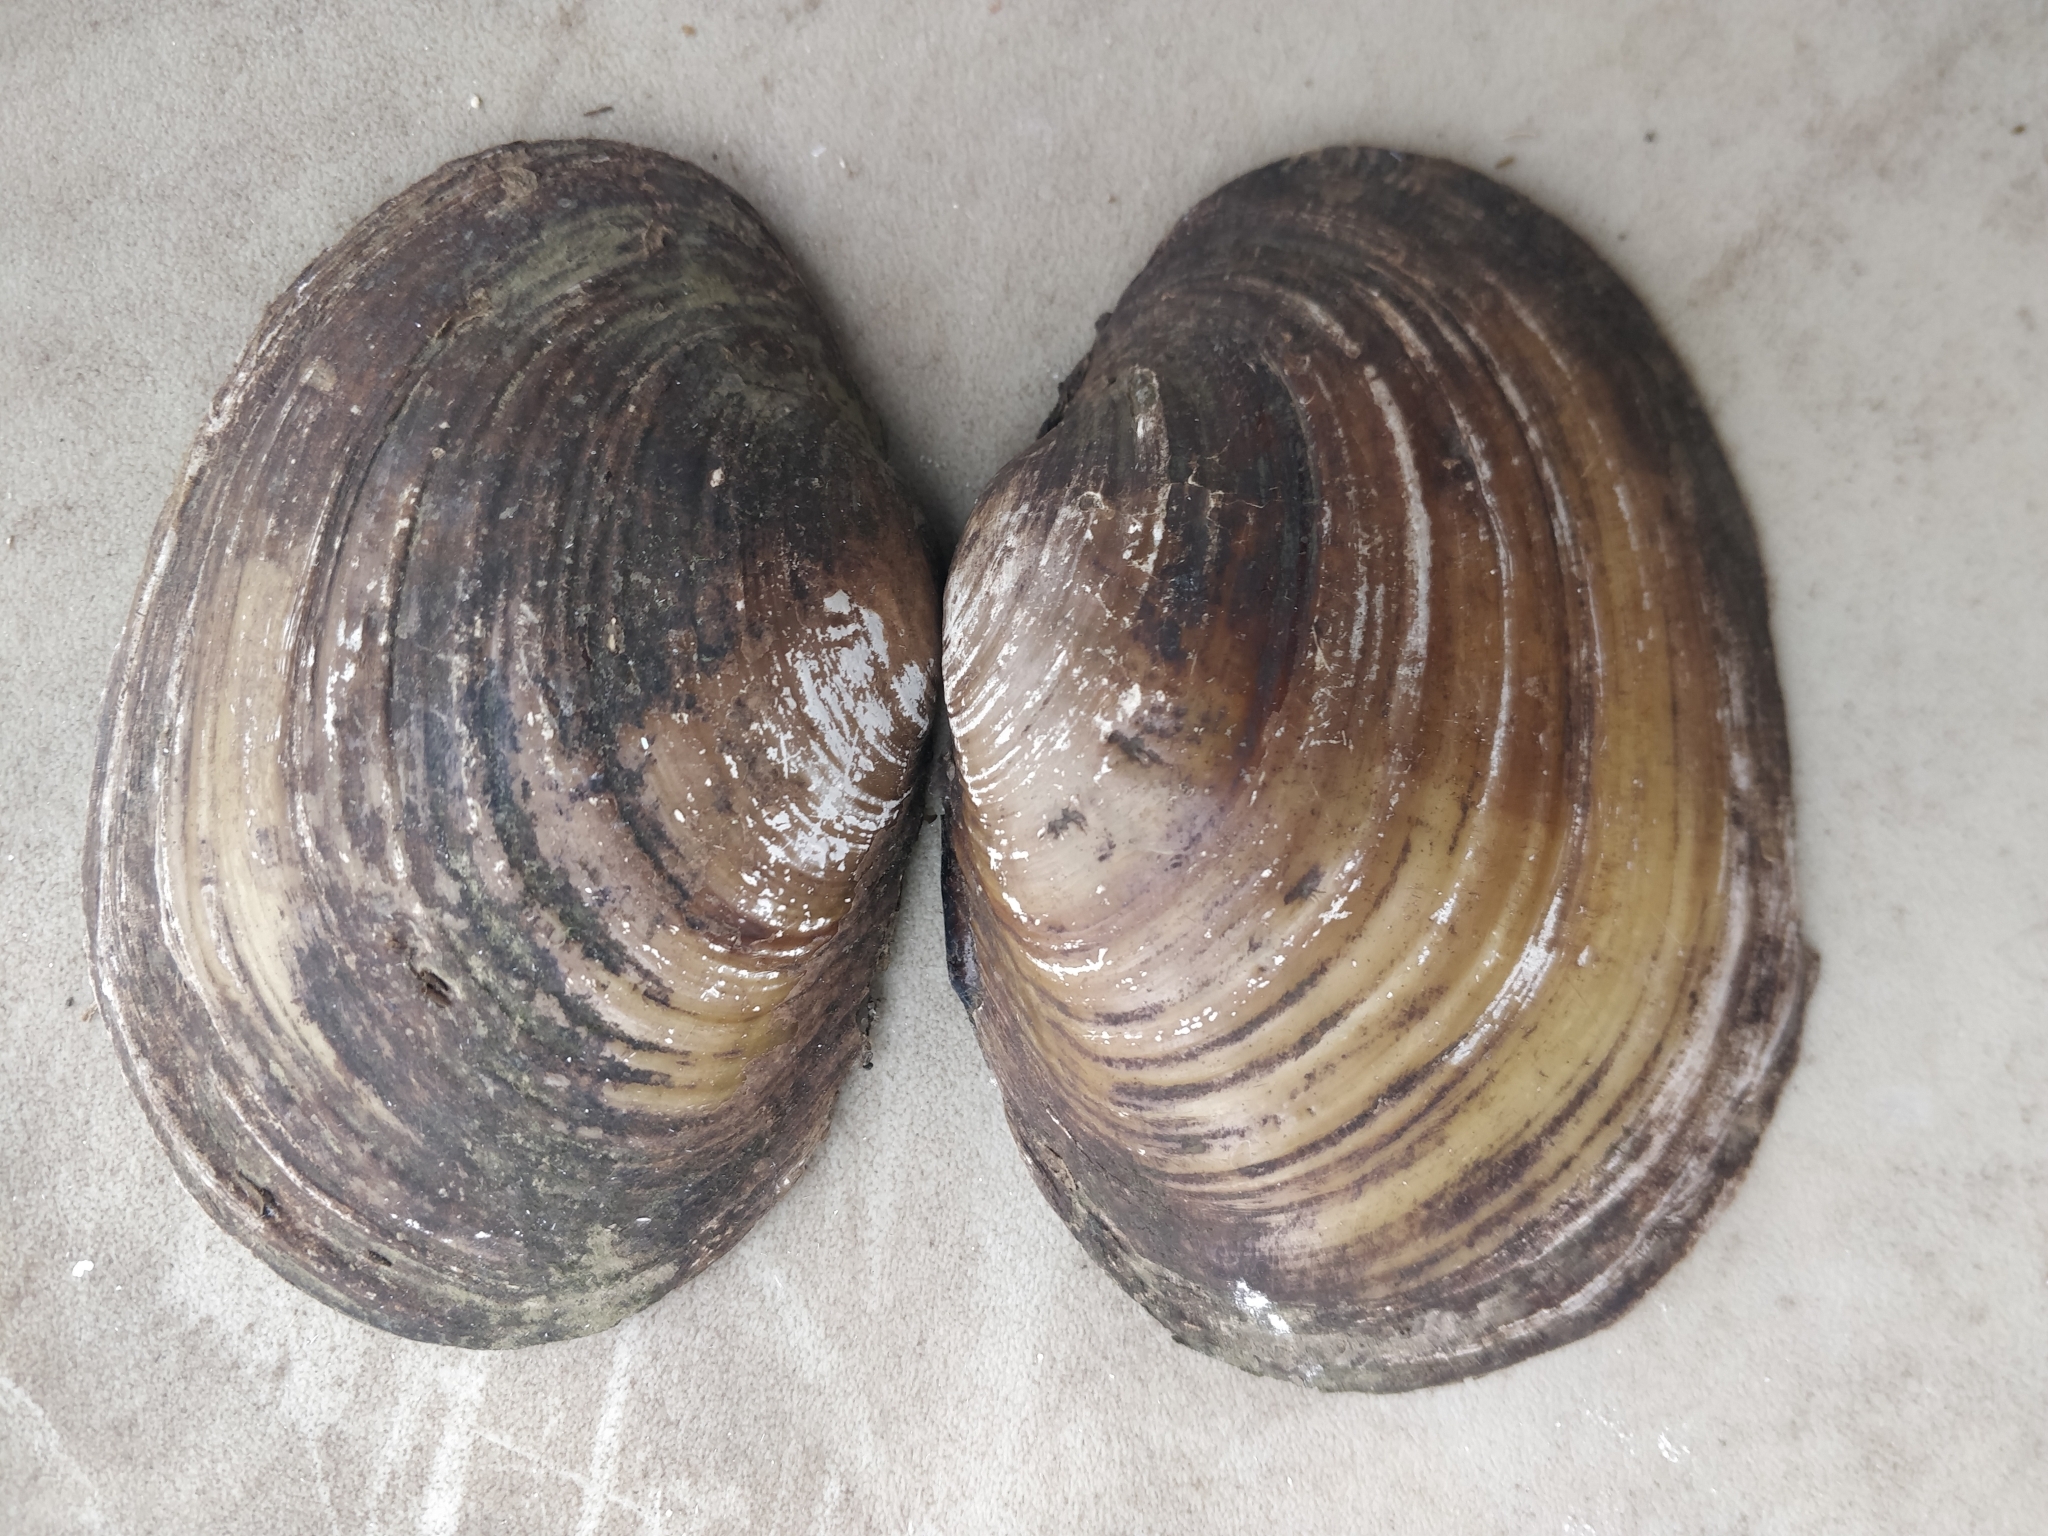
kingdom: Animalia
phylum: Mollusca
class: Bivalvia
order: Unionida
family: Unionidae
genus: Lampsilis
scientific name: Lampsilis cardium
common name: Plain pocketbook
